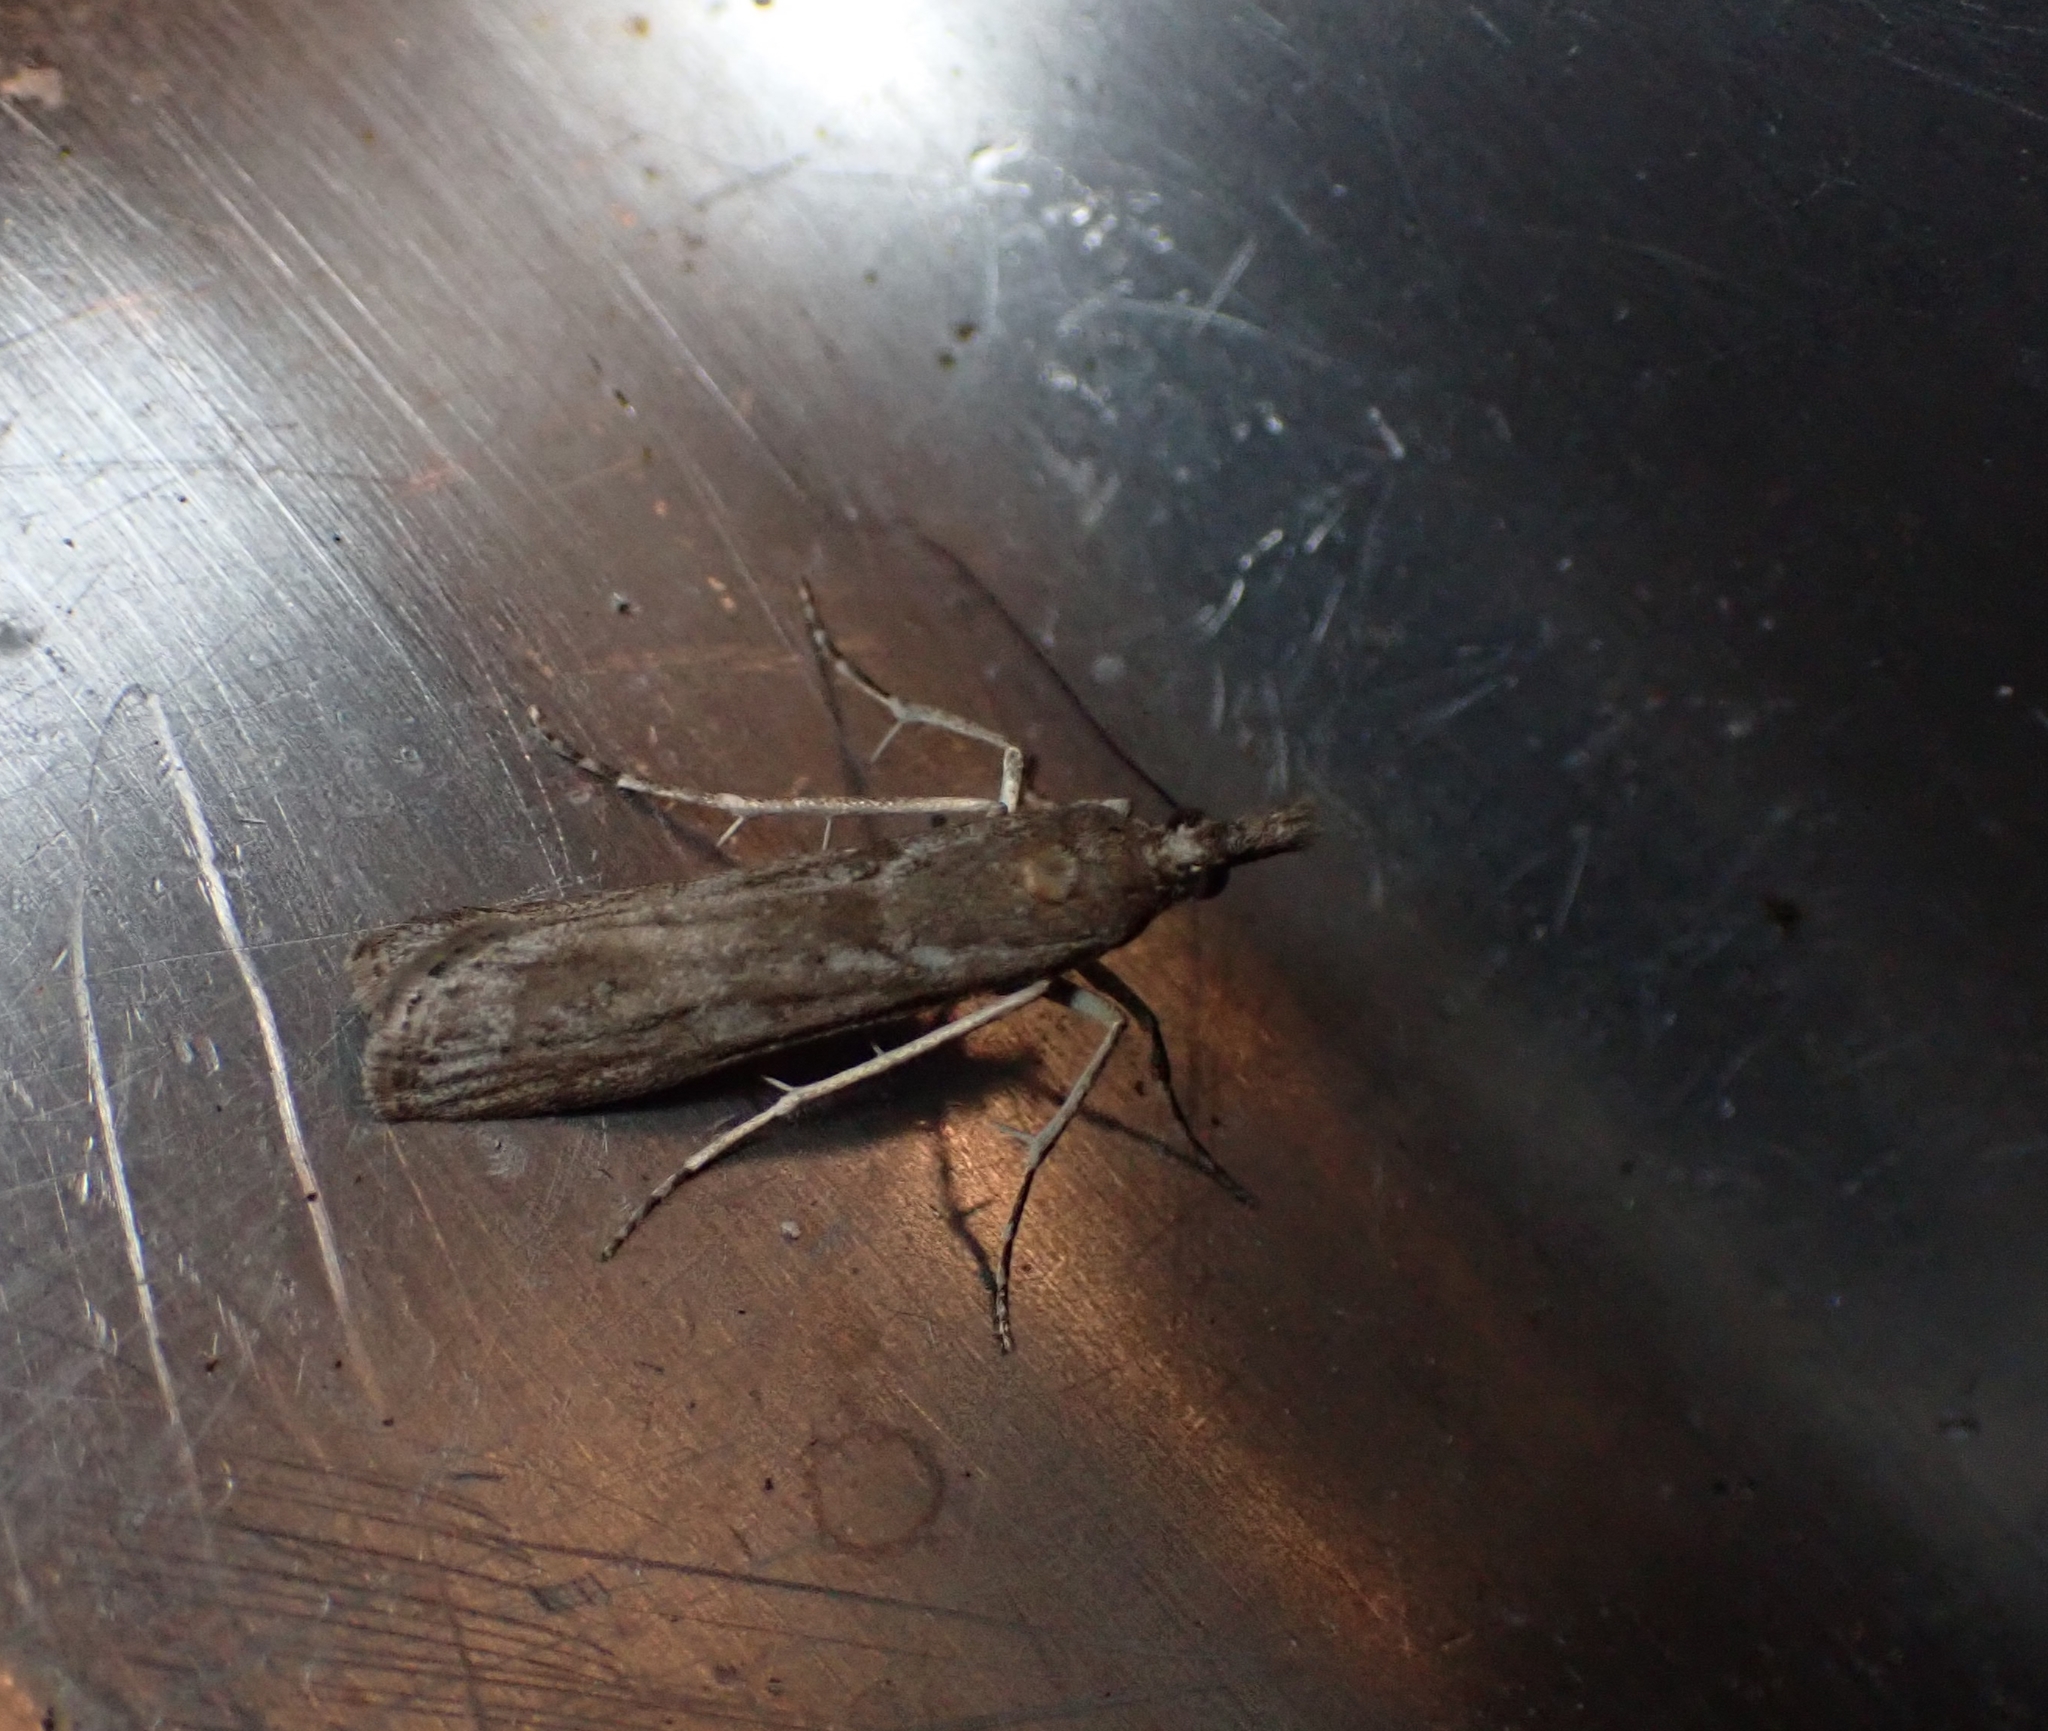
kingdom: Animalia
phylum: Arthropoda
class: Insecta
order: Lepidoptera
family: Crambidae
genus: Eudonia
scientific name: Eudonia leptalea
